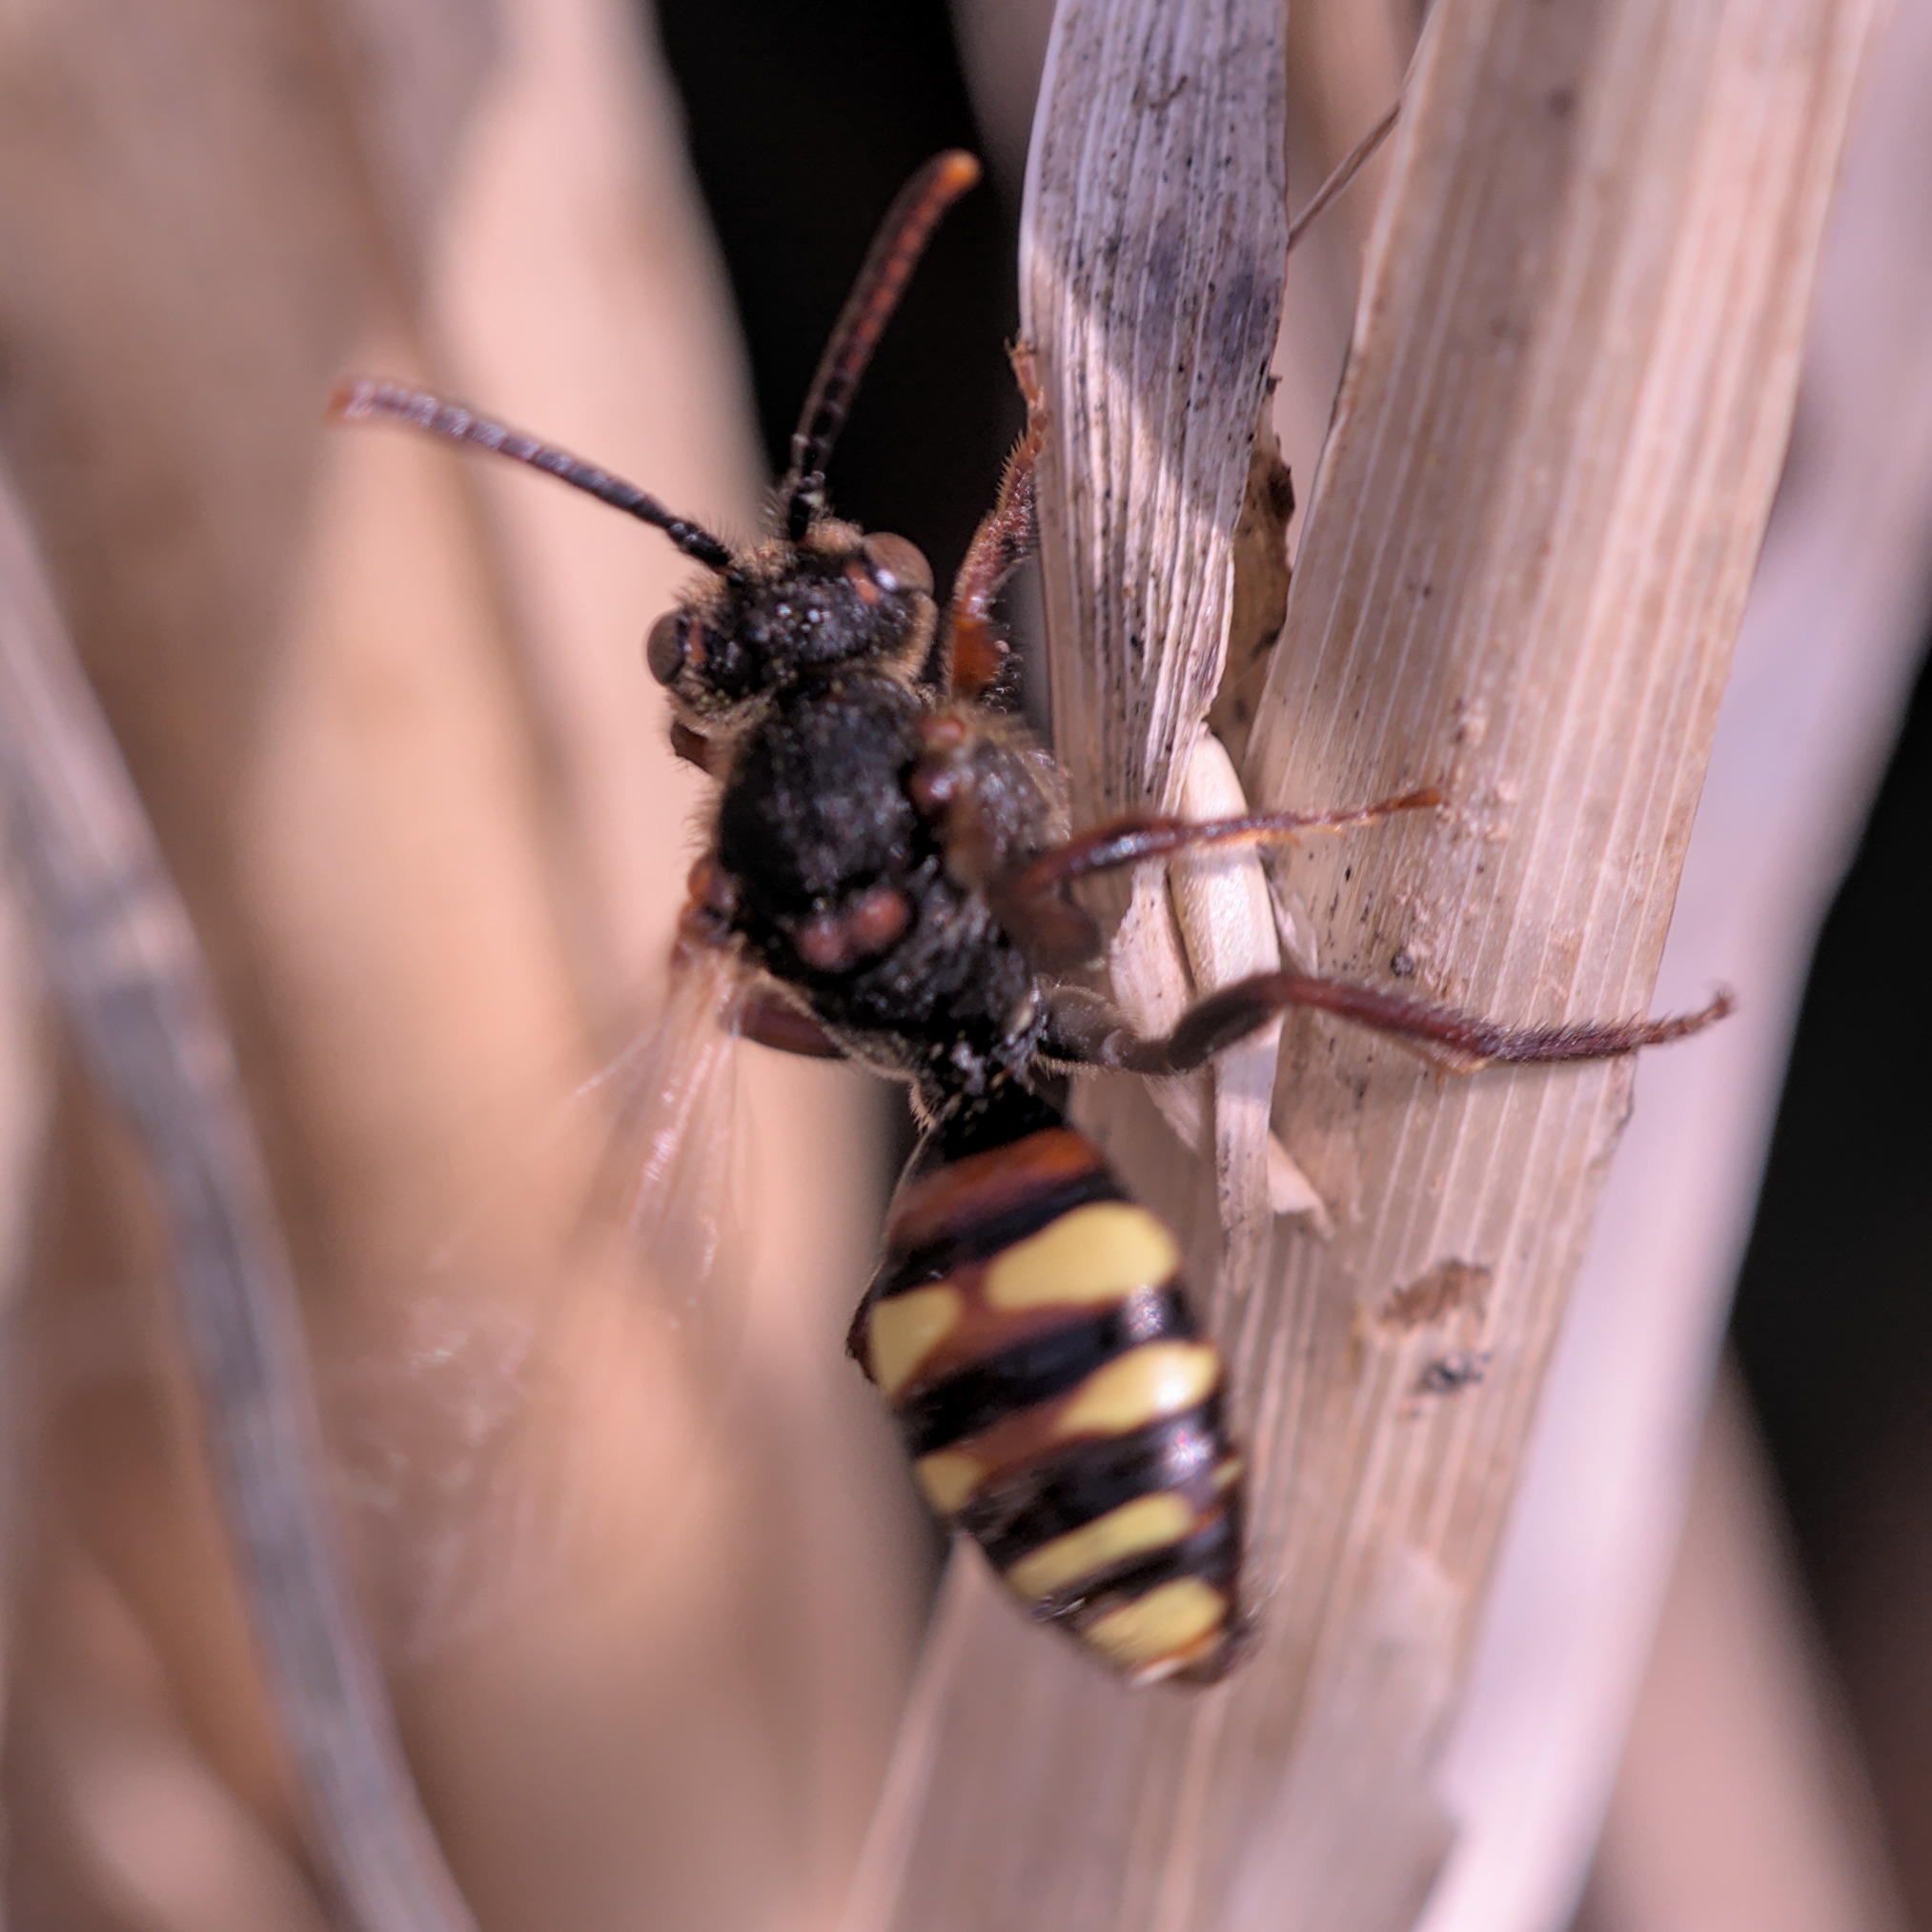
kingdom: Animalia
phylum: Arthropoda
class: Insecta
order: Hymenoptera
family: Apidae
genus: Nomada
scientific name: Nomada leucophthalma
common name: Early nomad bee
